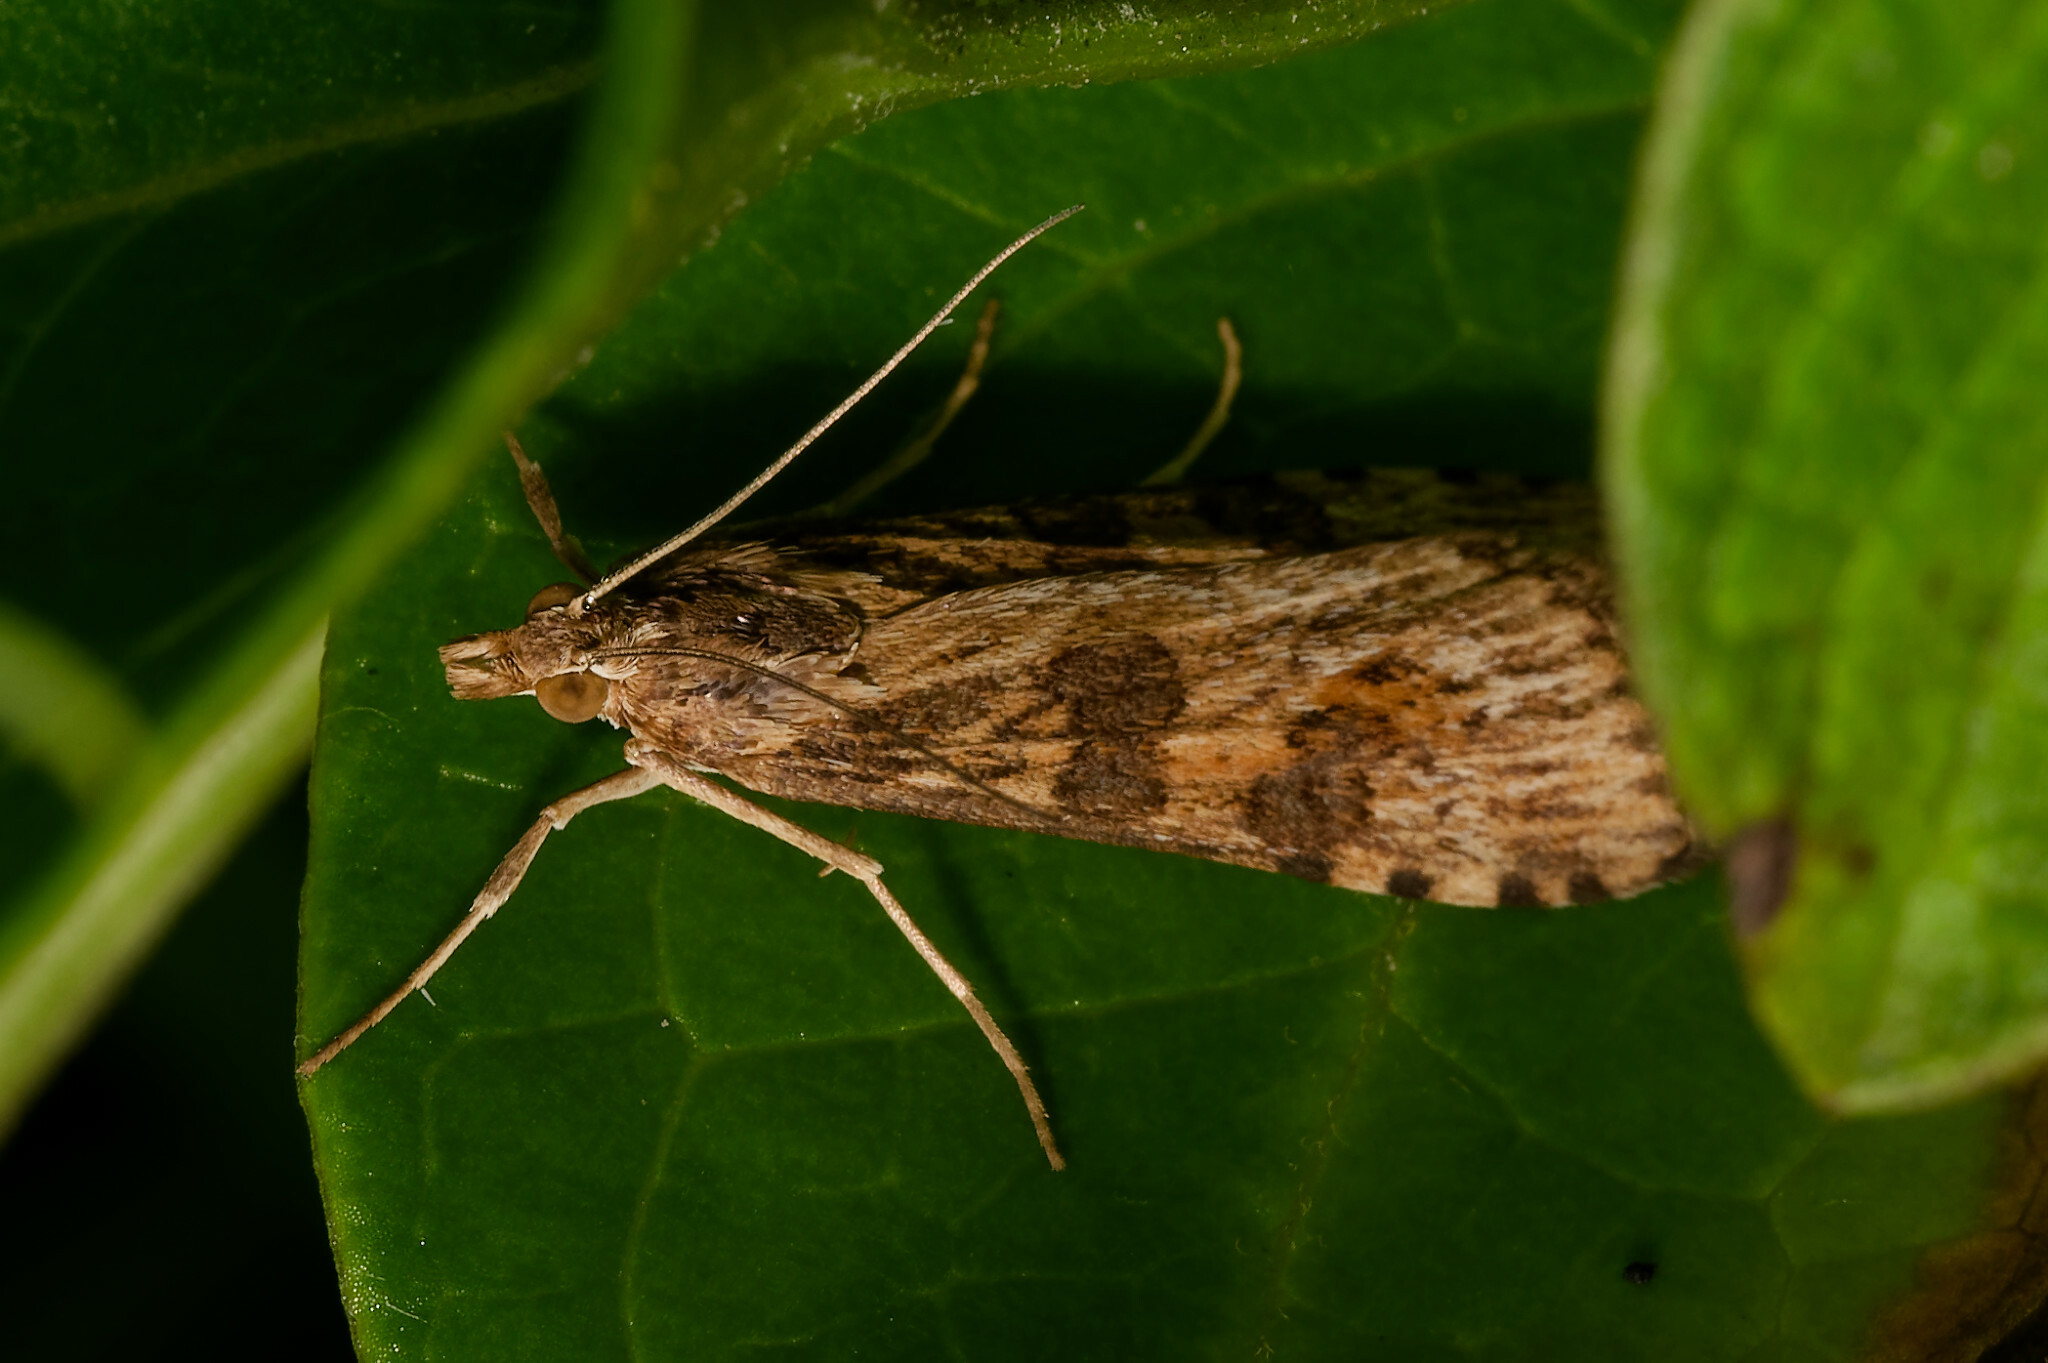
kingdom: Animalia
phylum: Arthropoda
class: Insecta
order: Lepidoptera
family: Crambidae
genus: Nomophila
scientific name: Nomophila nearctica
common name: American rush veneer
